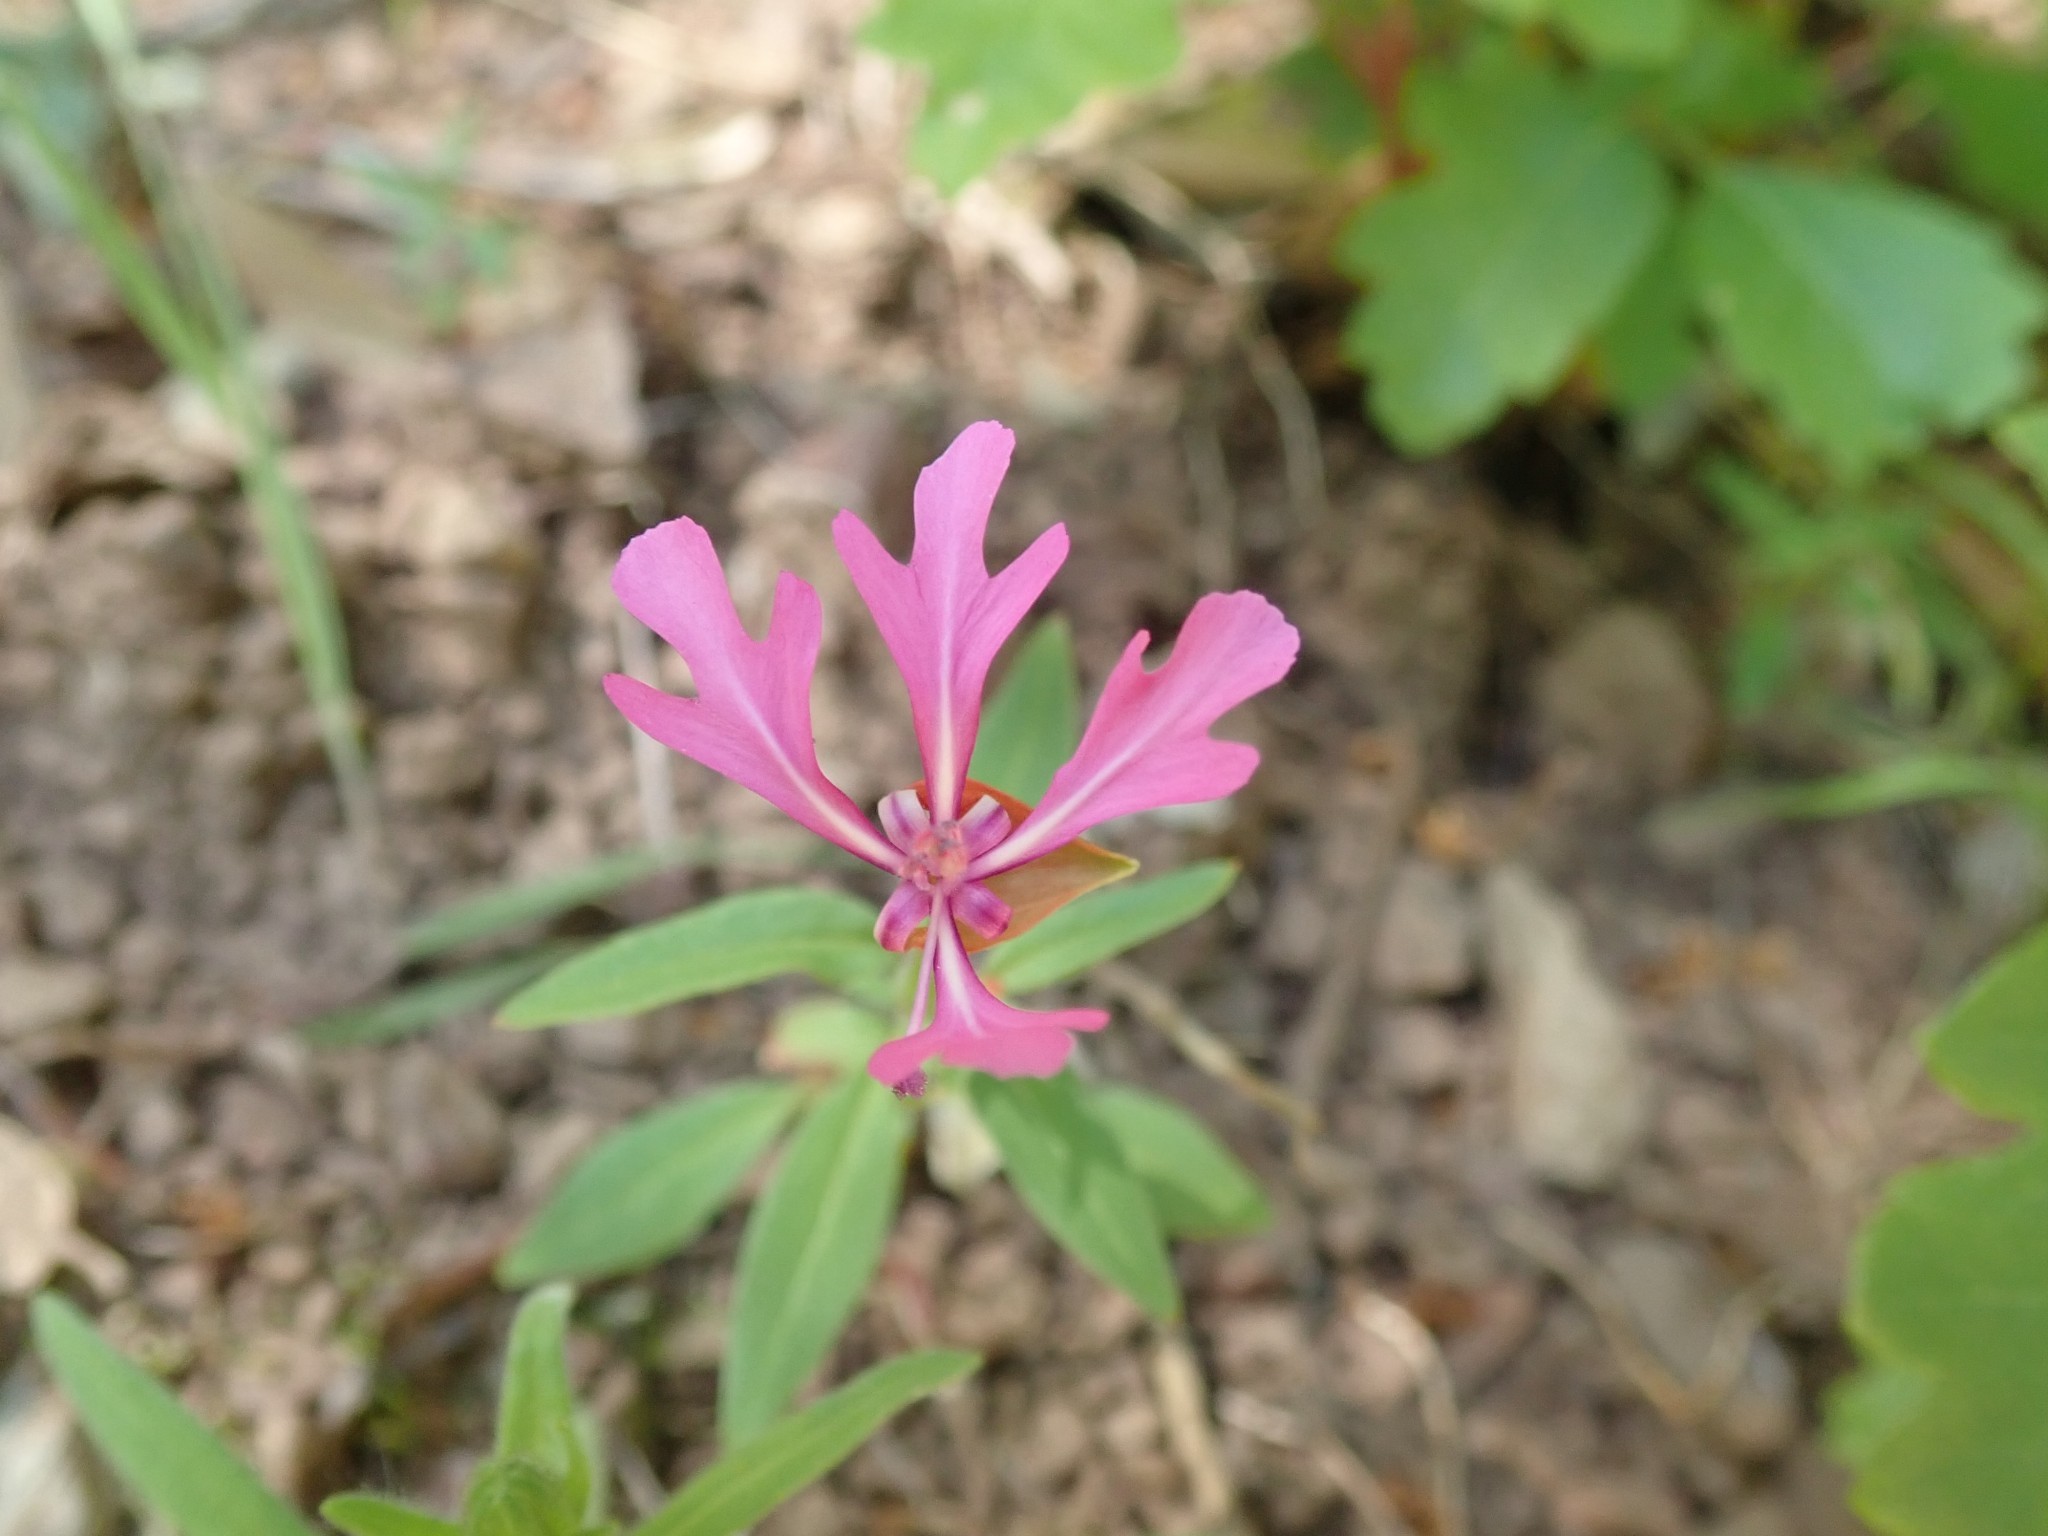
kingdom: Plantae
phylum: Tracheophyta
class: Magnoliopsida
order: Myrtales
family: Onagraceae
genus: Clarkia
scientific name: Clarkia concinna
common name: Red-ribbons
